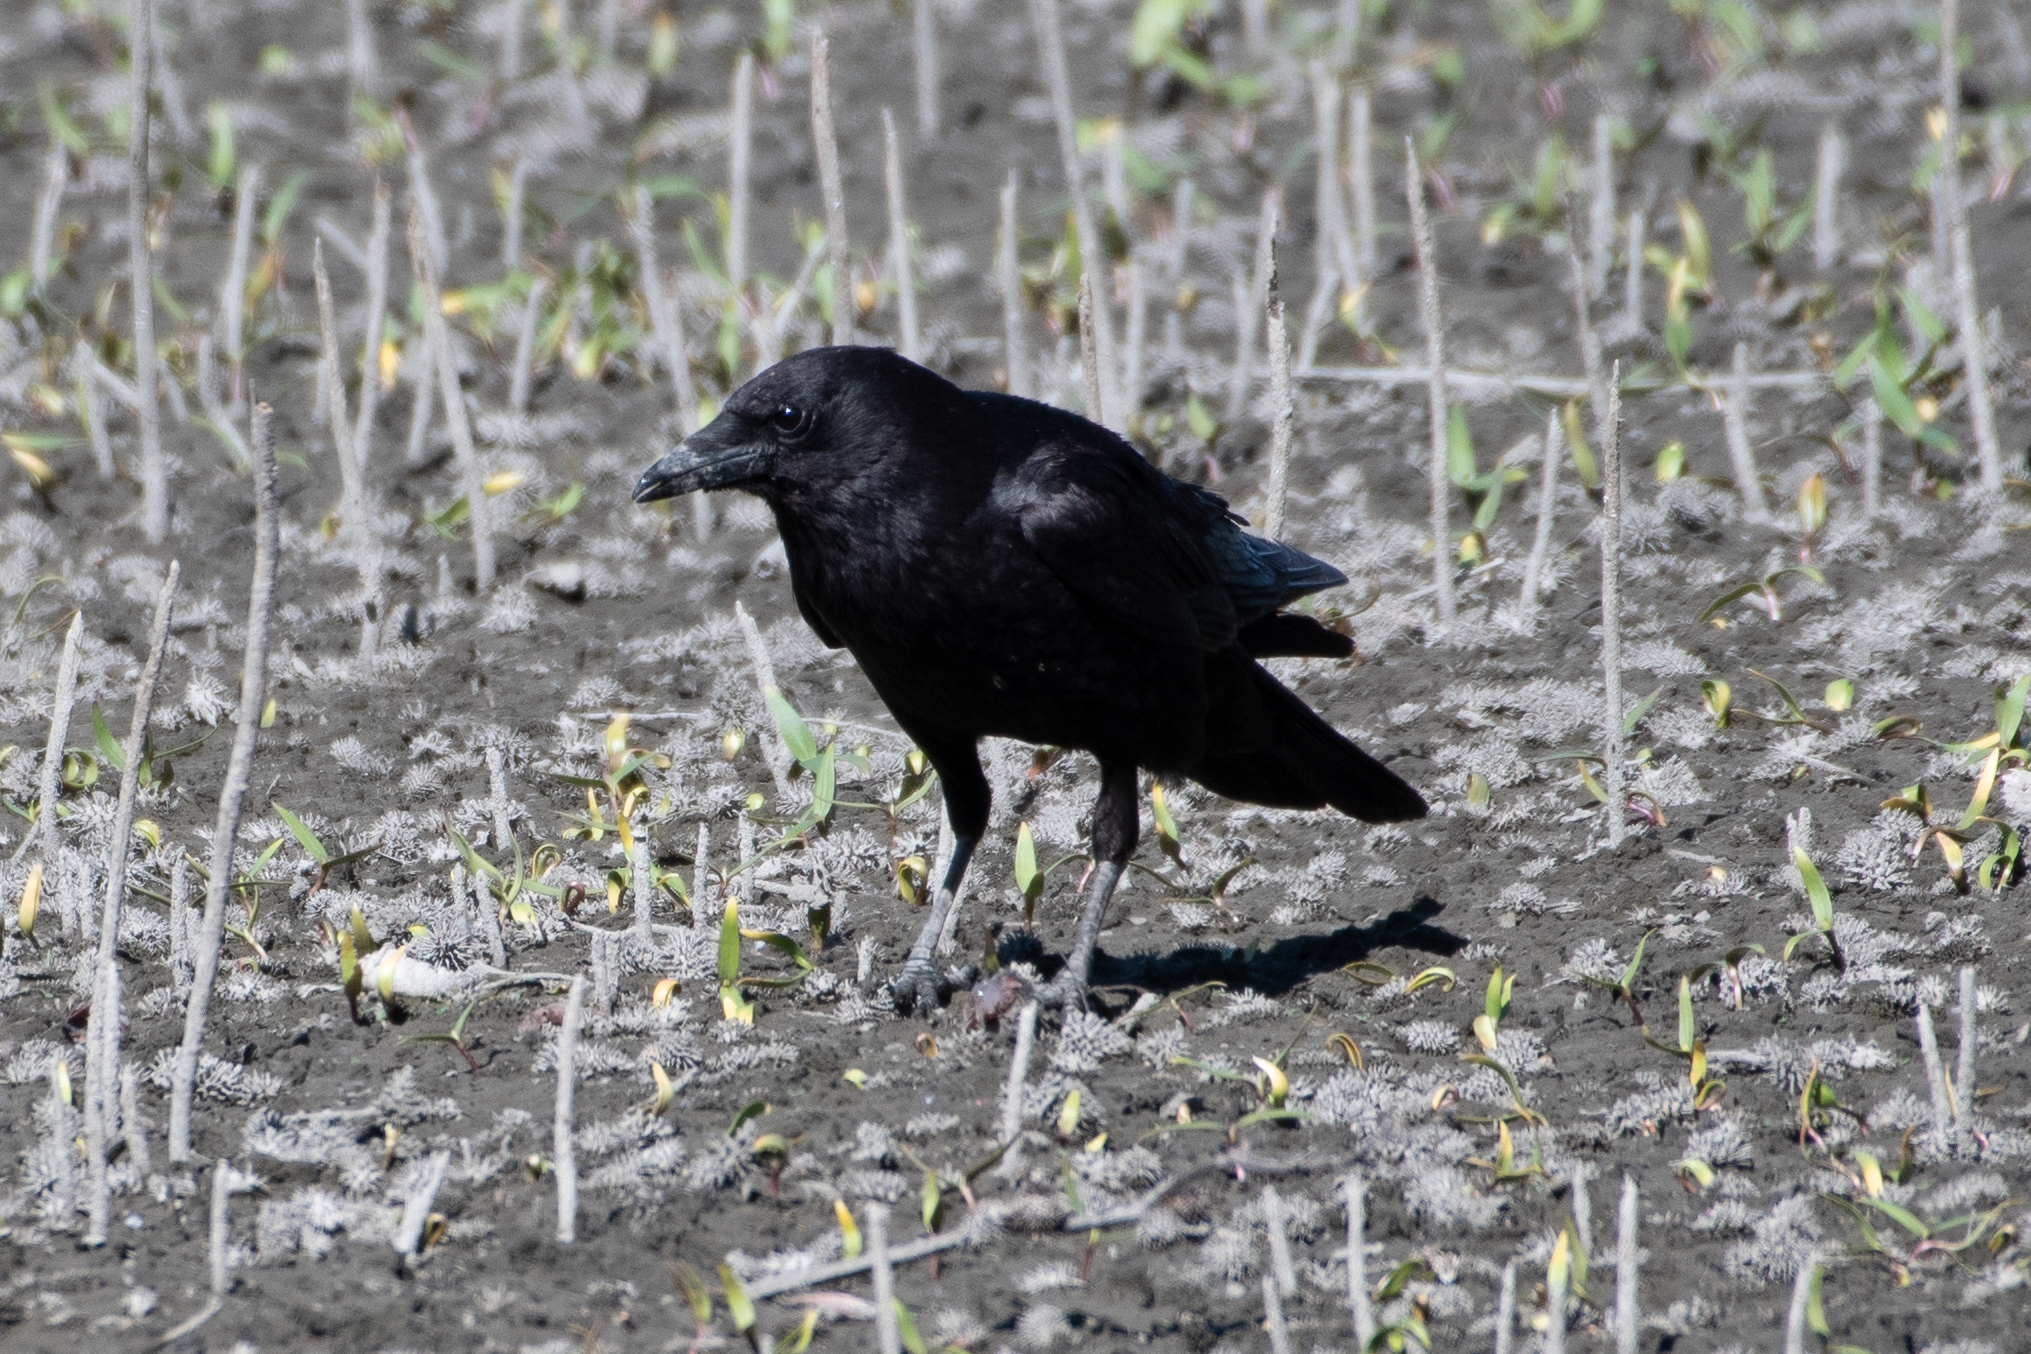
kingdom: Animalia
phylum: Chordata
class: Aves
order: Passeriformes
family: Corvidae
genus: Corvus
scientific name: Corvus brachyrhynchos
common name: American crow
